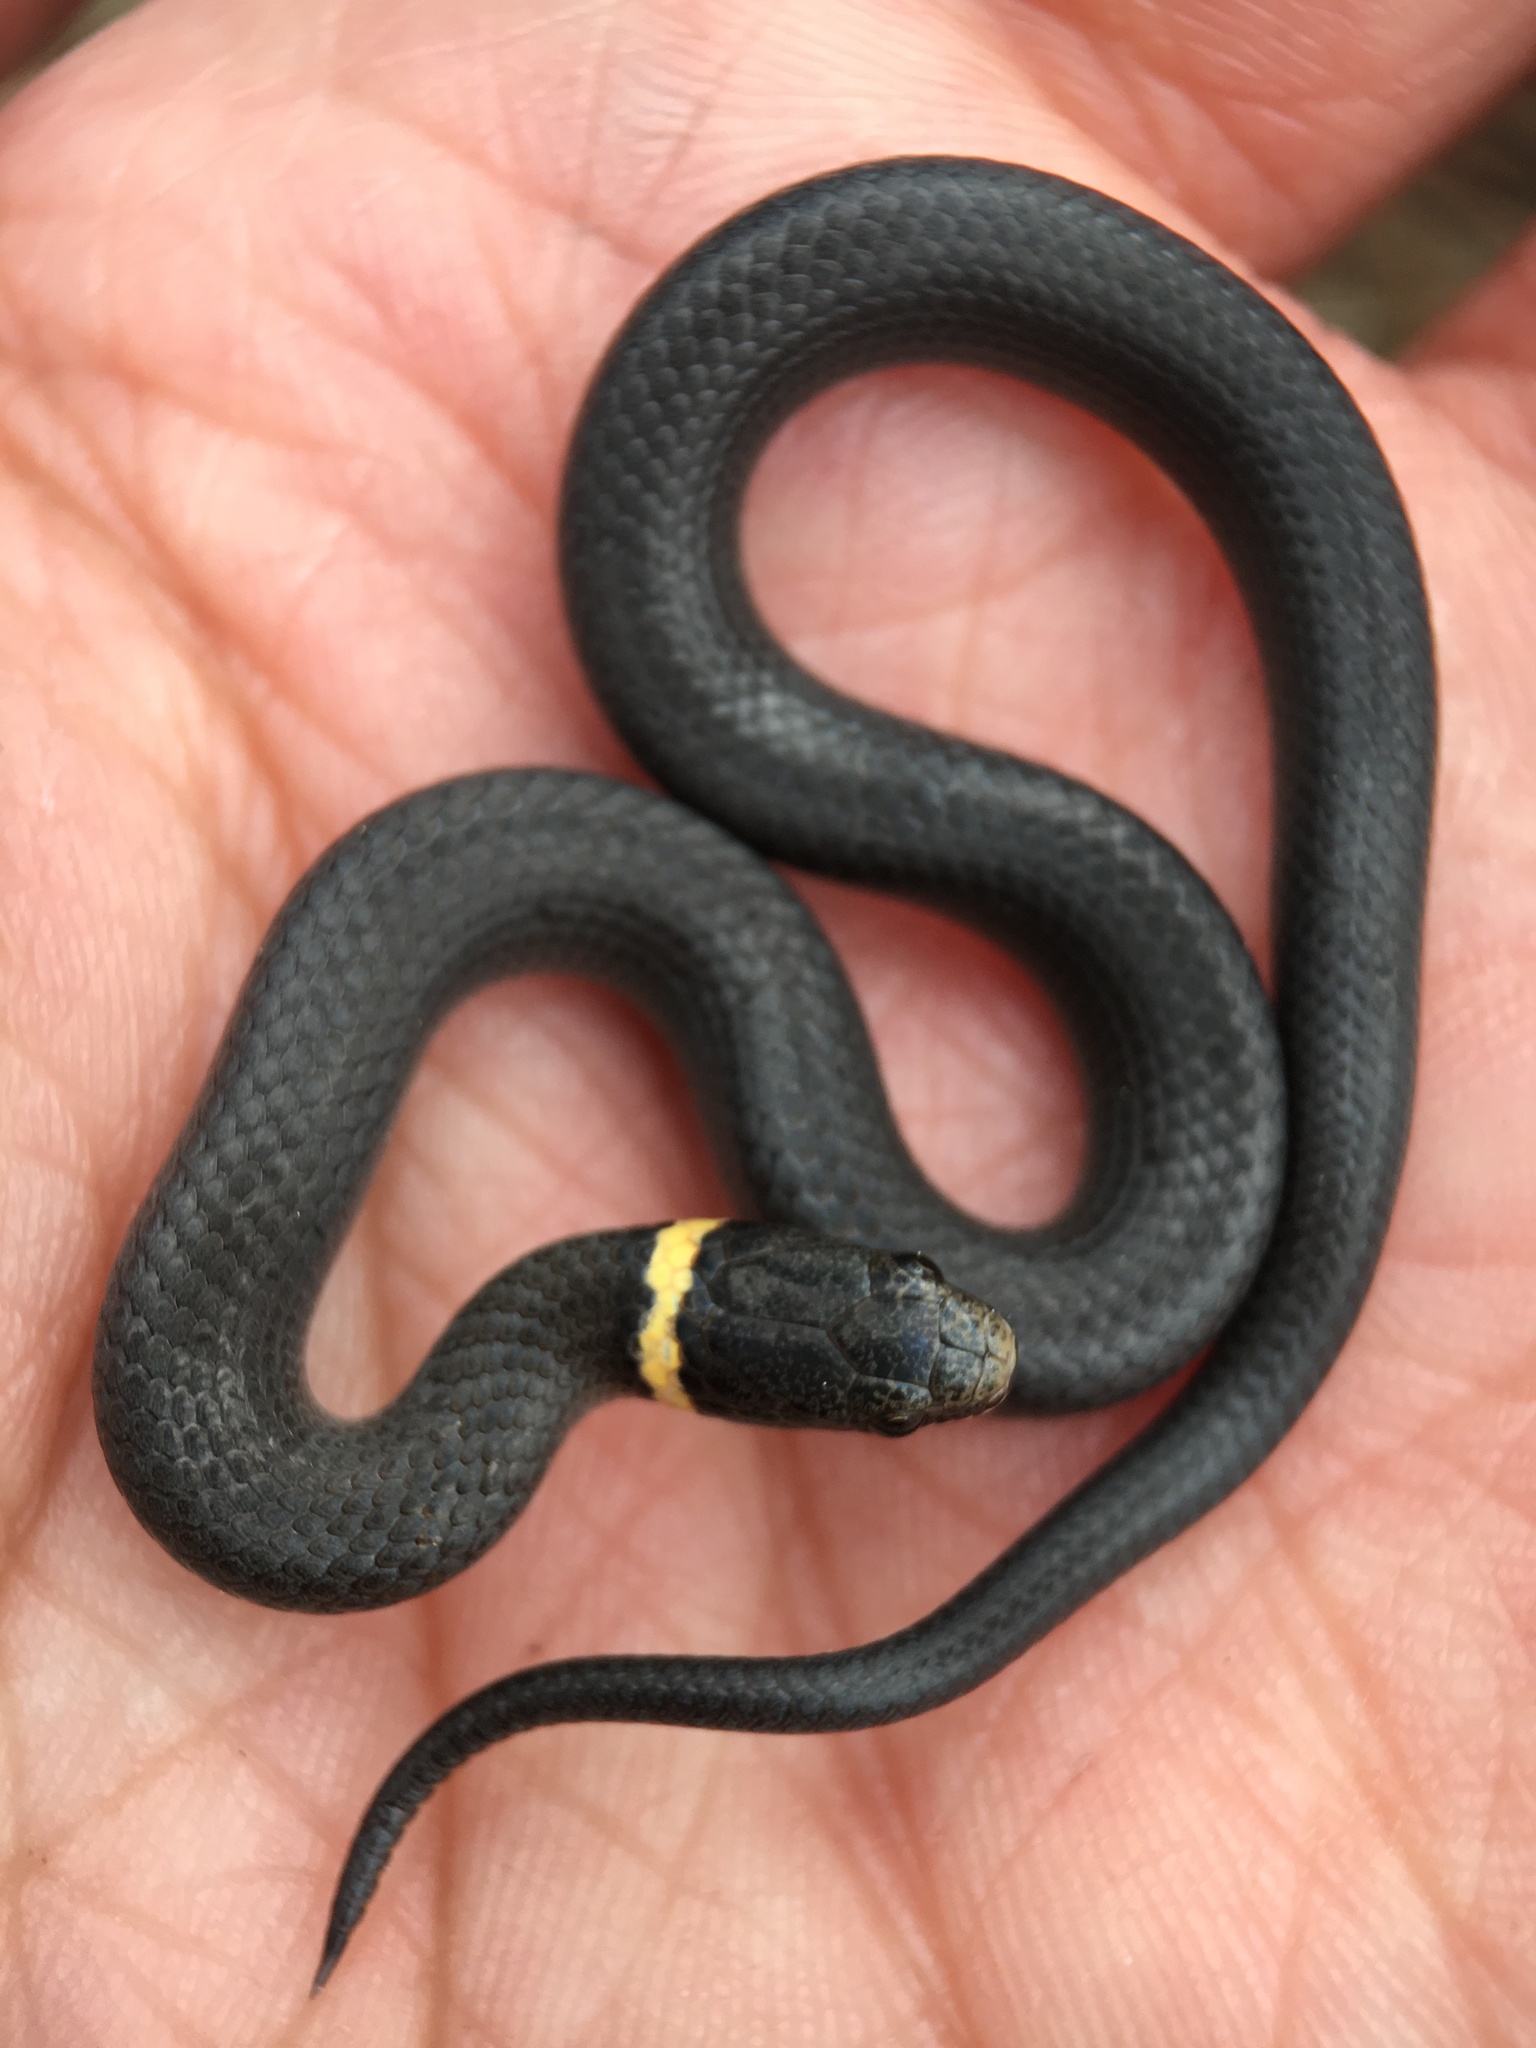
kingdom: Animalia
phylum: Chordata
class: Squamata
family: Colubridae
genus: Diadophis
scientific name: Diadophis punctatus
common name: Ringneck snake
